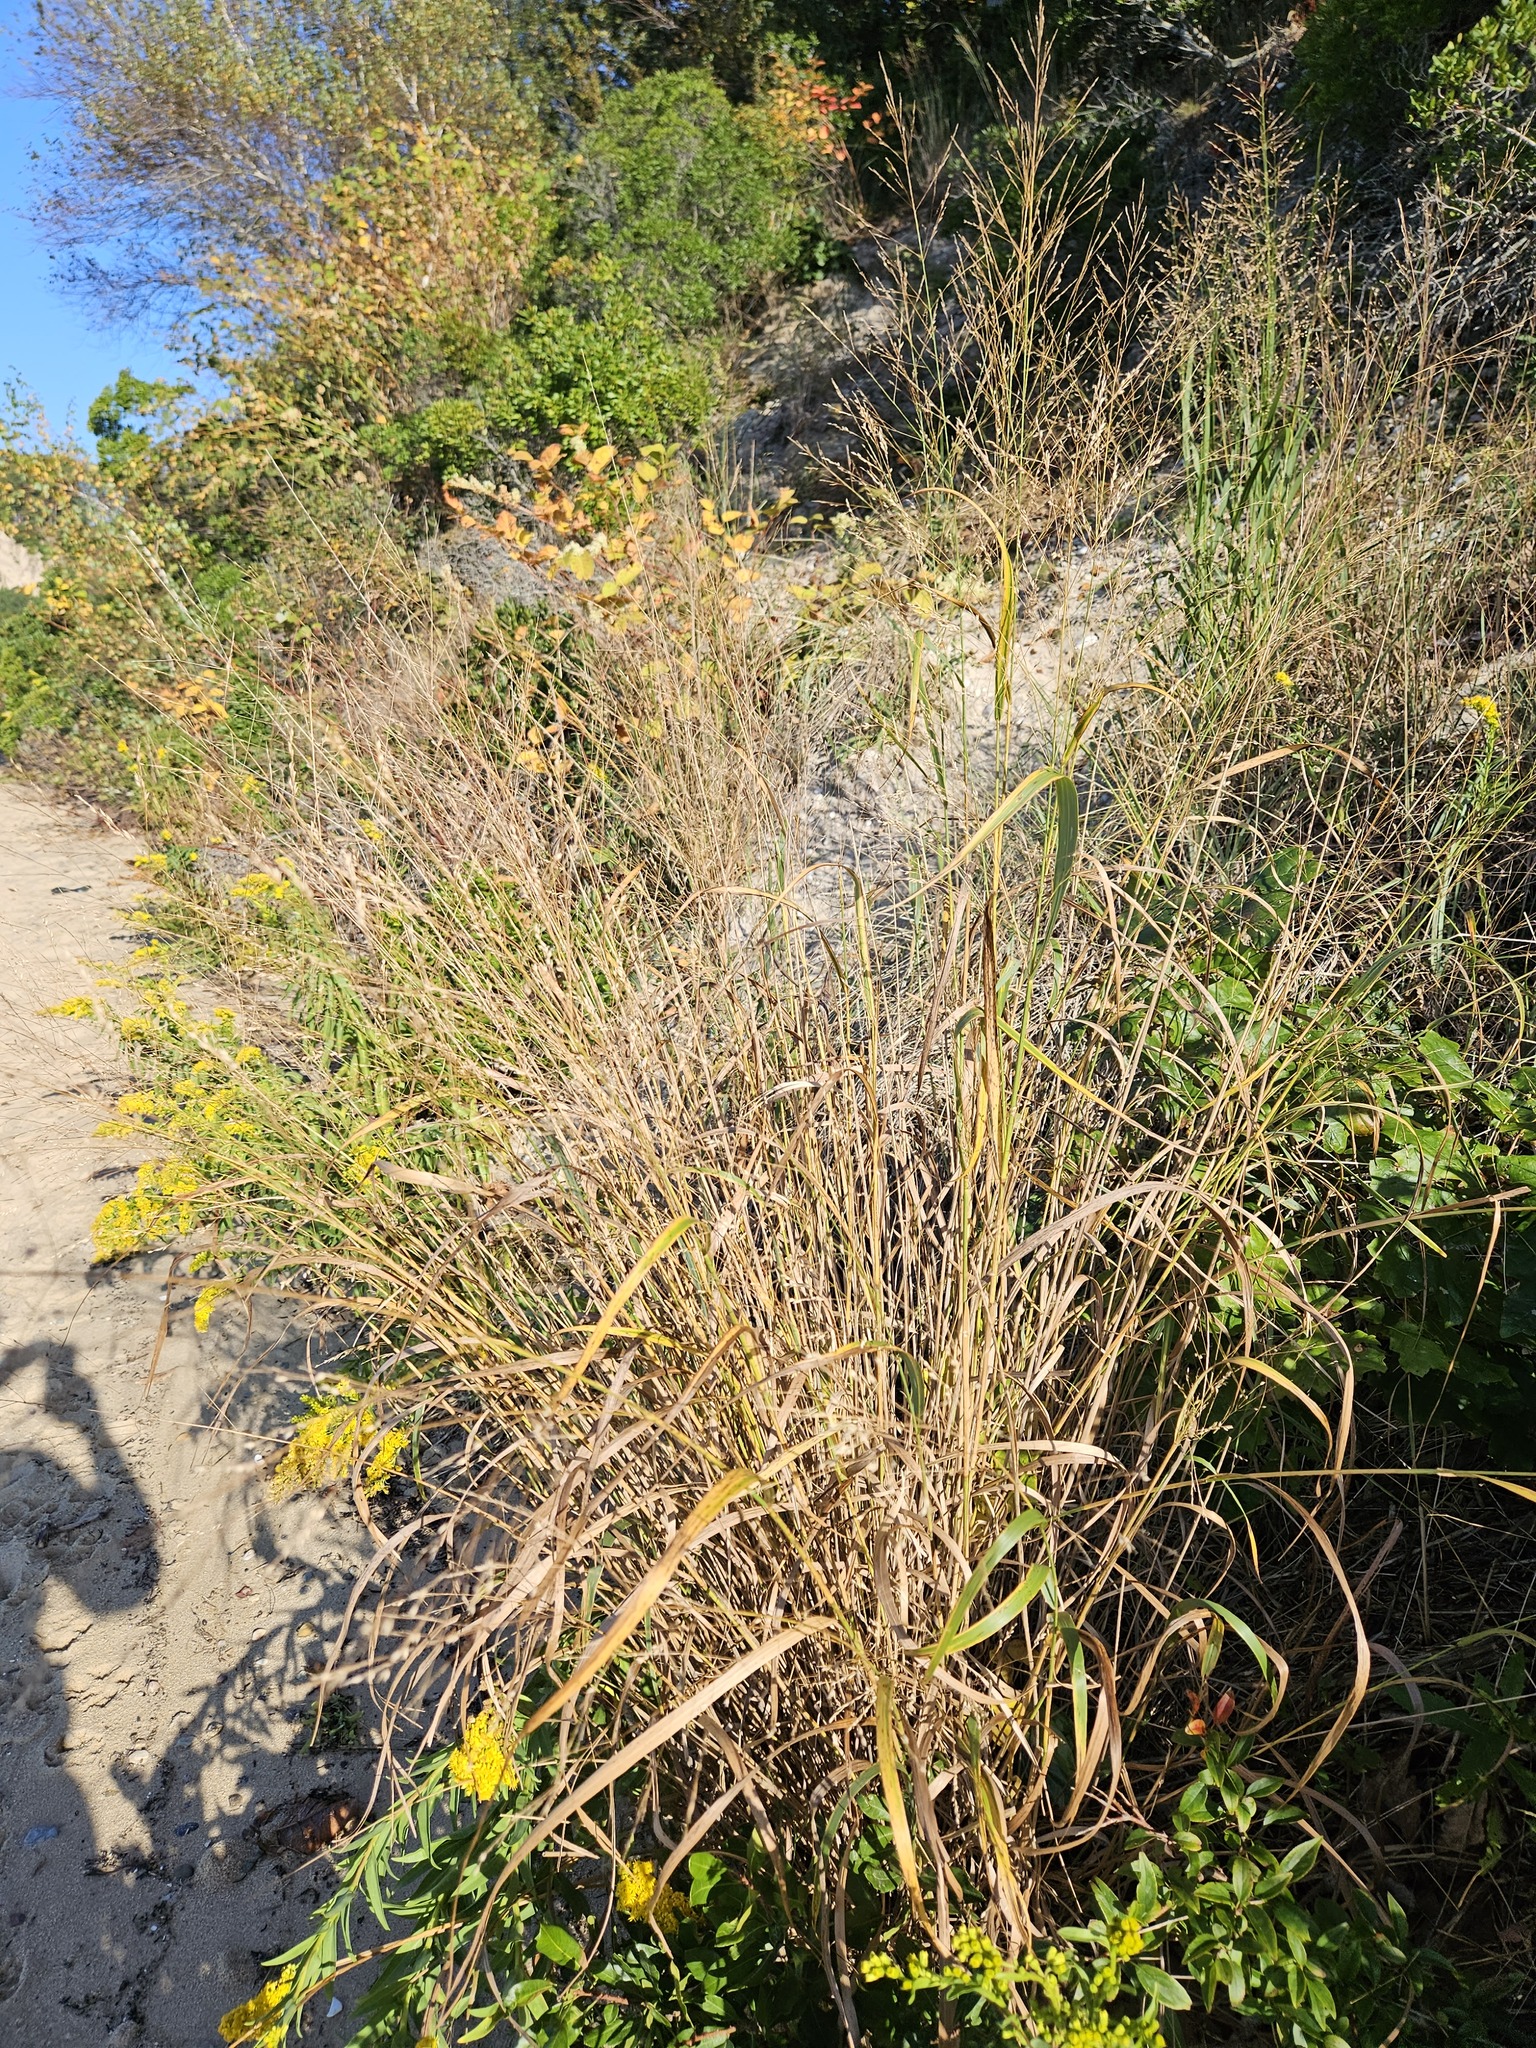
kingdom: Plantae
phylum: Tracheophyta
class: Liliopsida
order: Poales
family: Poaceae
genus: Panicum
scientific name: Panicum virgatum
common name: Switchgrass
